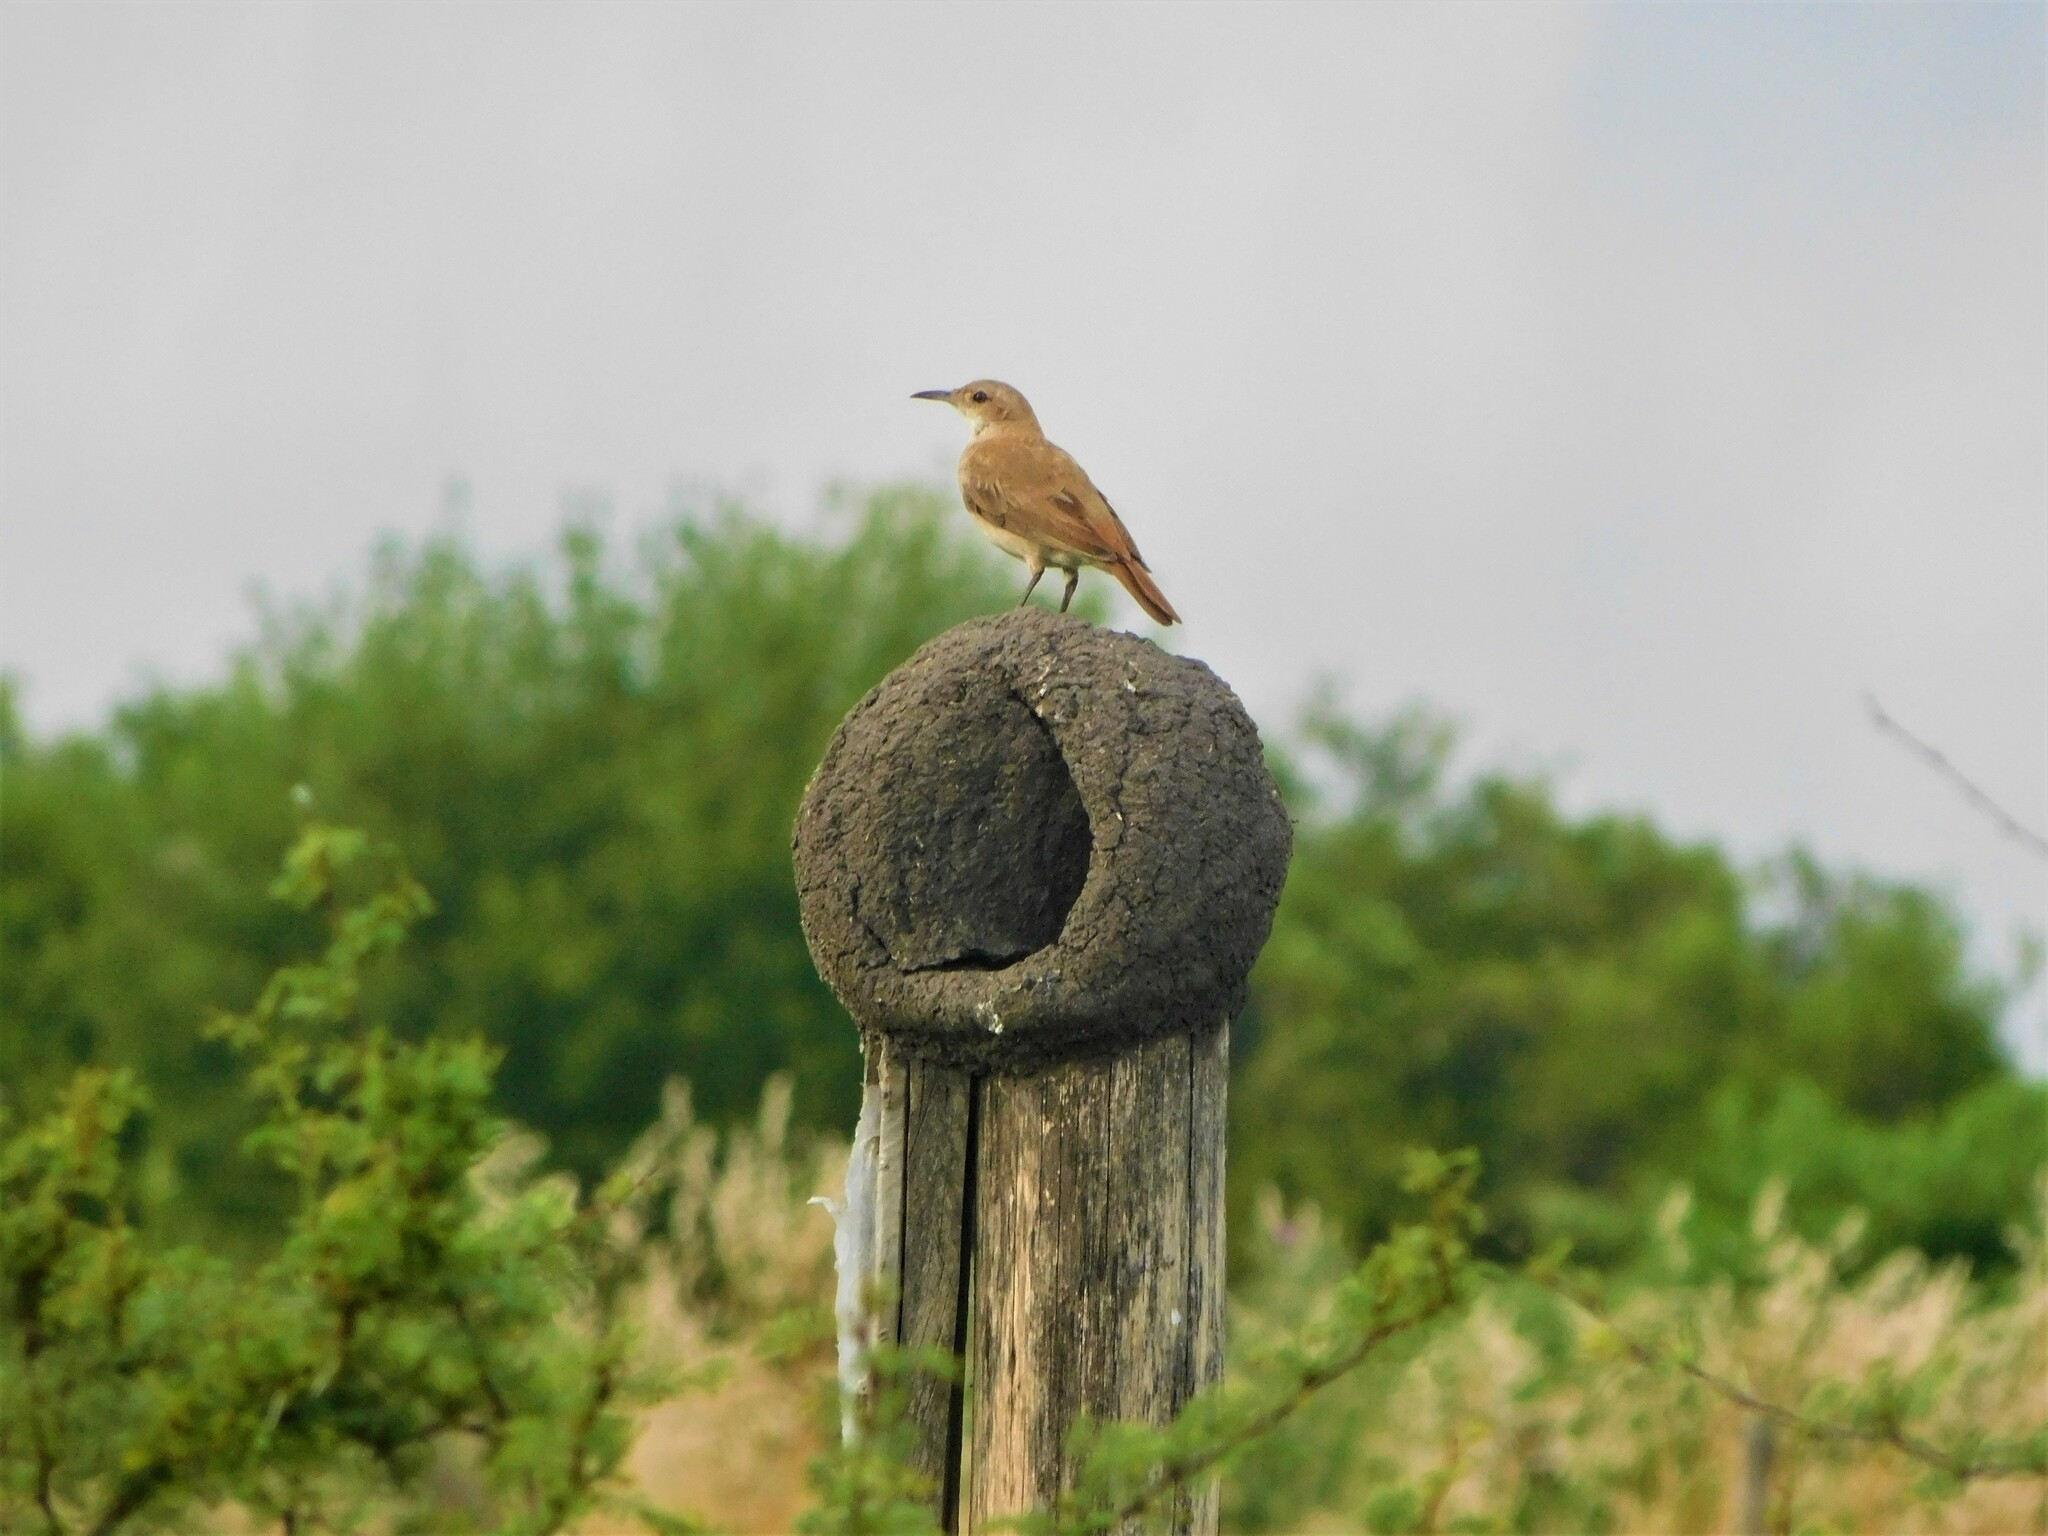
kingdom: Animalia
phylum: Chordata
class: Aves
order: Passeriformes
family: Furnariidae
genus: Furnarius
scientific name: Furnarius rufus
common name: Rufous hornero
